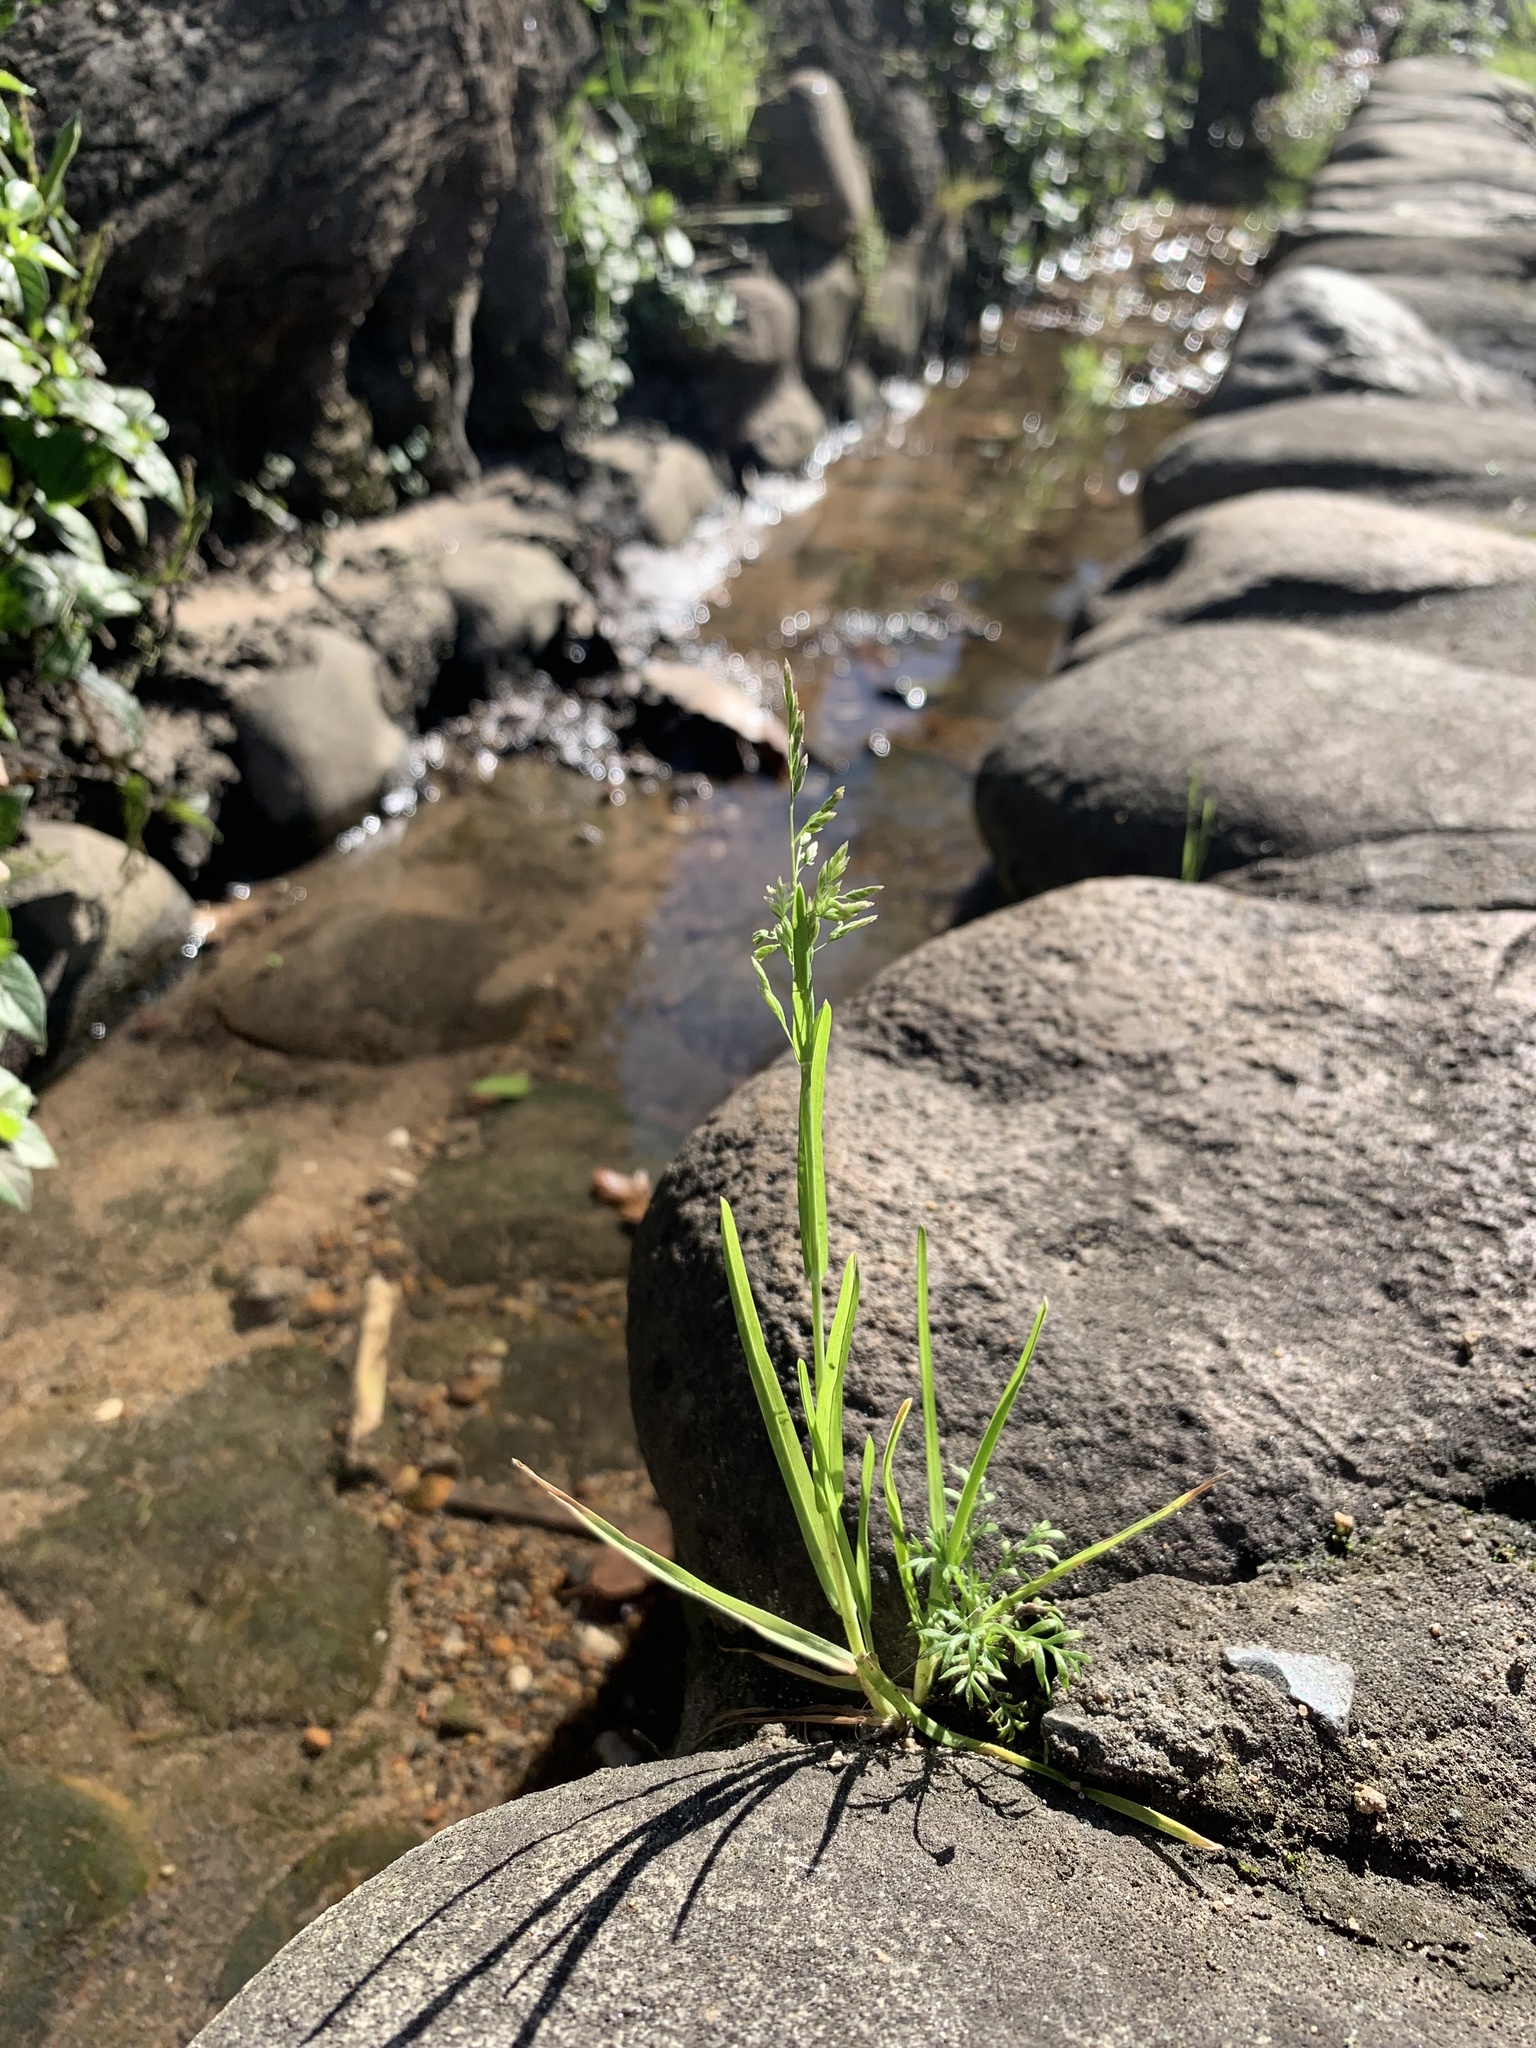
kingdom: Plantae
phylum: Tracheophyta
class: Liliopsida
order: Poales
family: Poaceae
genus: Poa
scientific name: Poa annua
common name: Annual bluegrass
